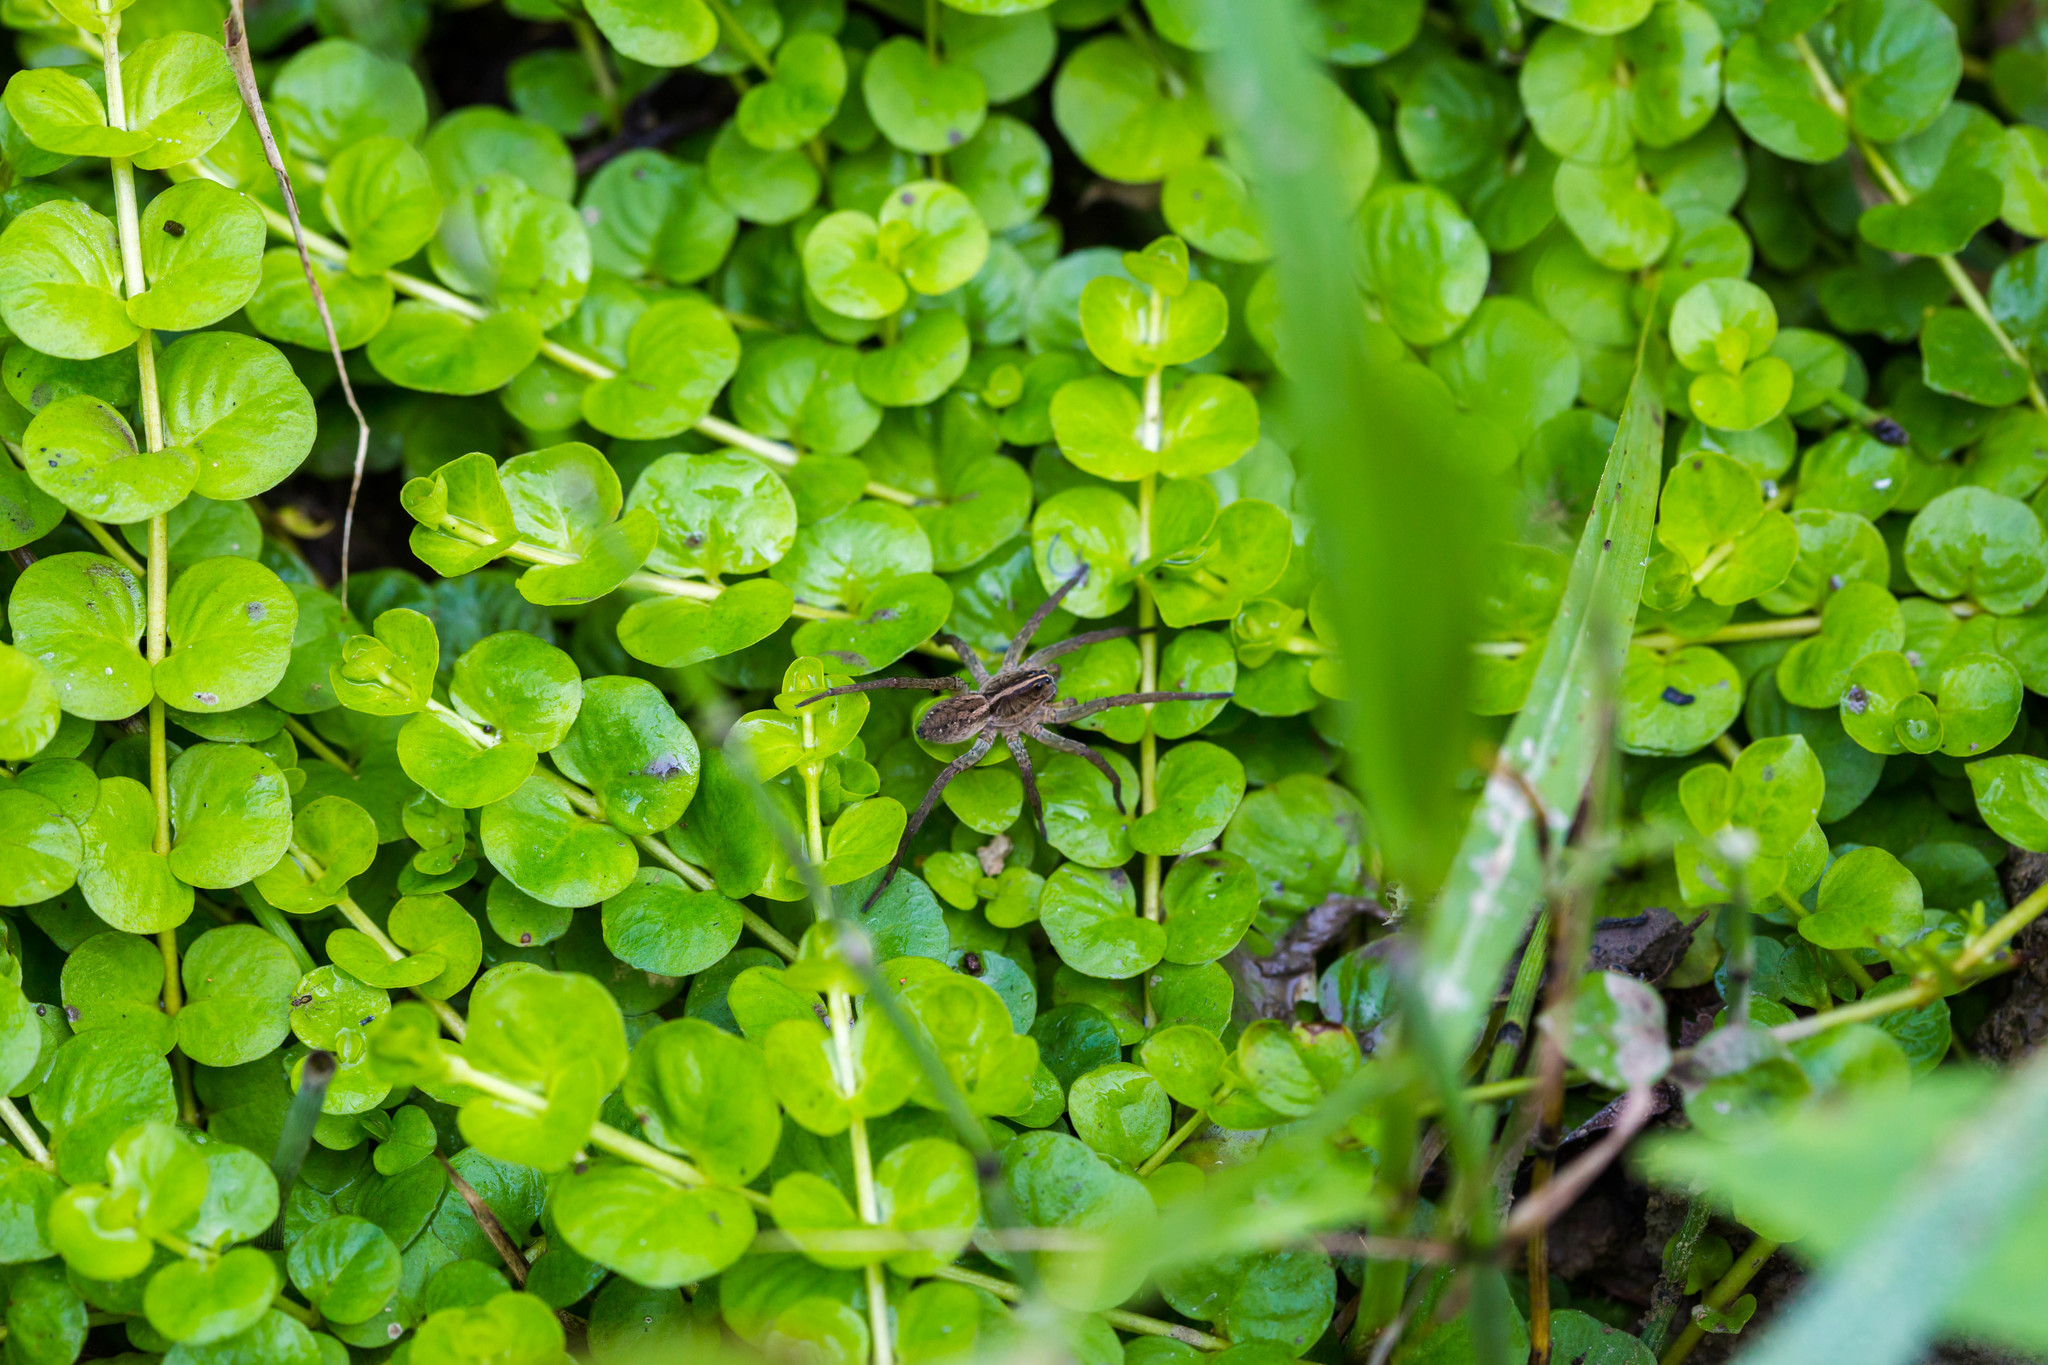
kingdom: Animalia
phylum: Arthropoda
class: Arachnida
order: Araneae
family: Lycosidae
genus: Tigrosa
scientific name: Tigrosa helluo
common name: Wetland giant wolf spider
